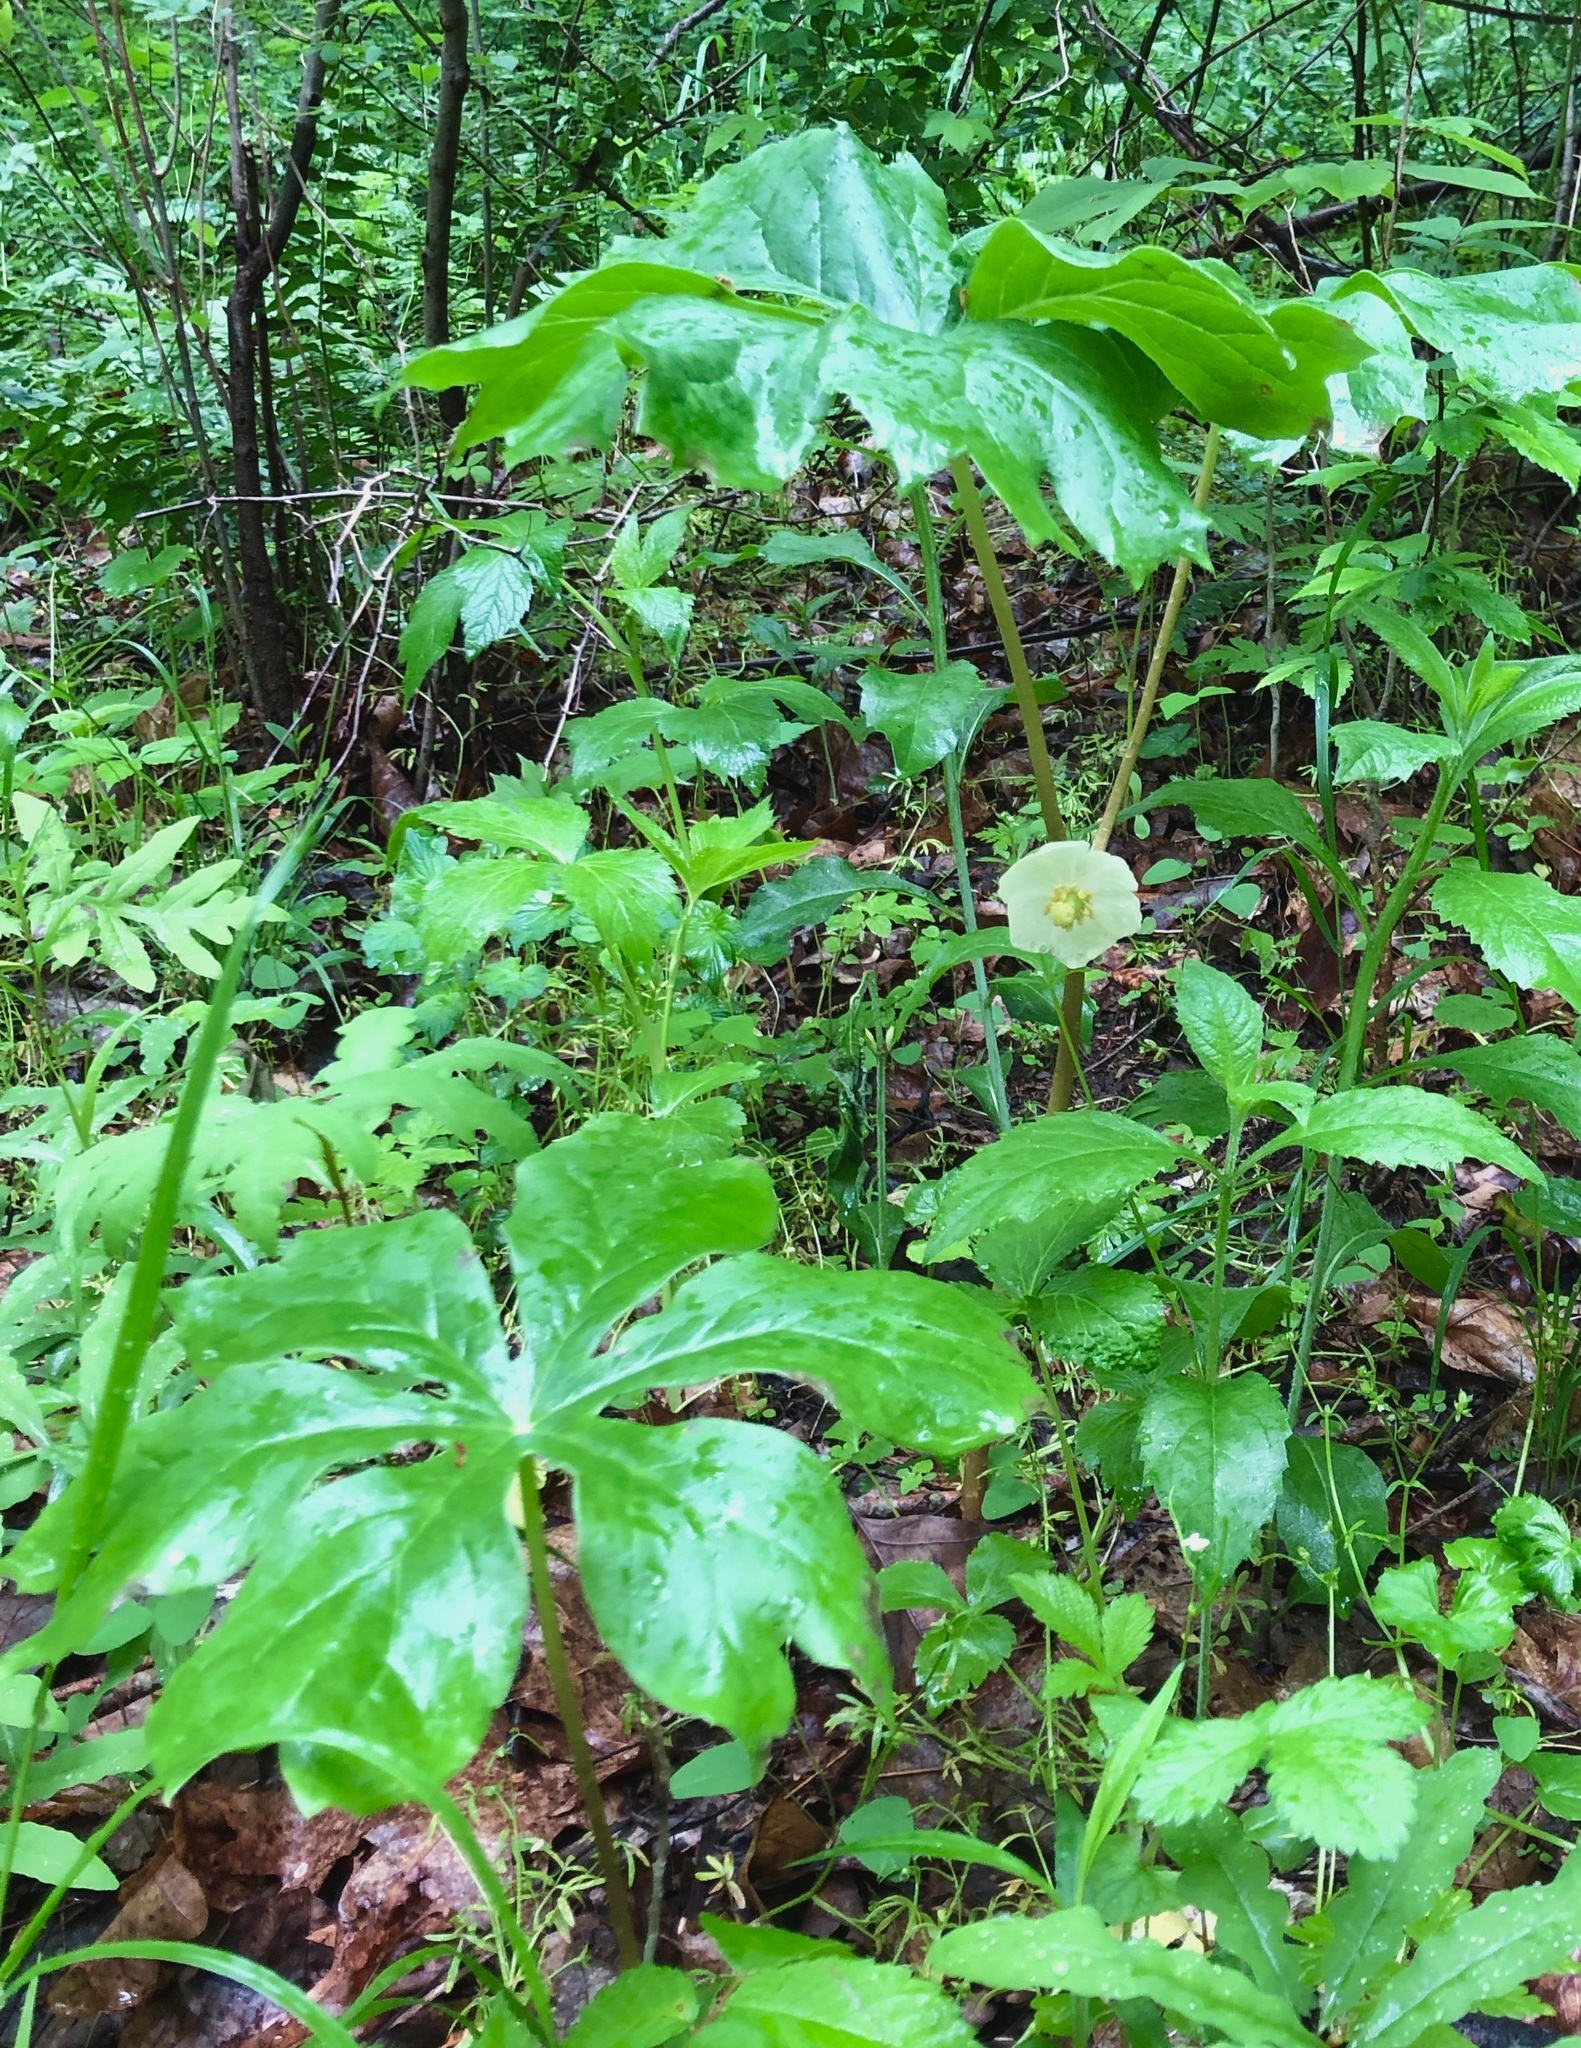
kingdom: Plantae
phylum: Tracheophyta
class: Magnoliopsida
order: Ranunculales
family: Berberidaceae
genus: Podophyllum
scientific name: Podophyllum peltatum
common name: Wild mandrake
